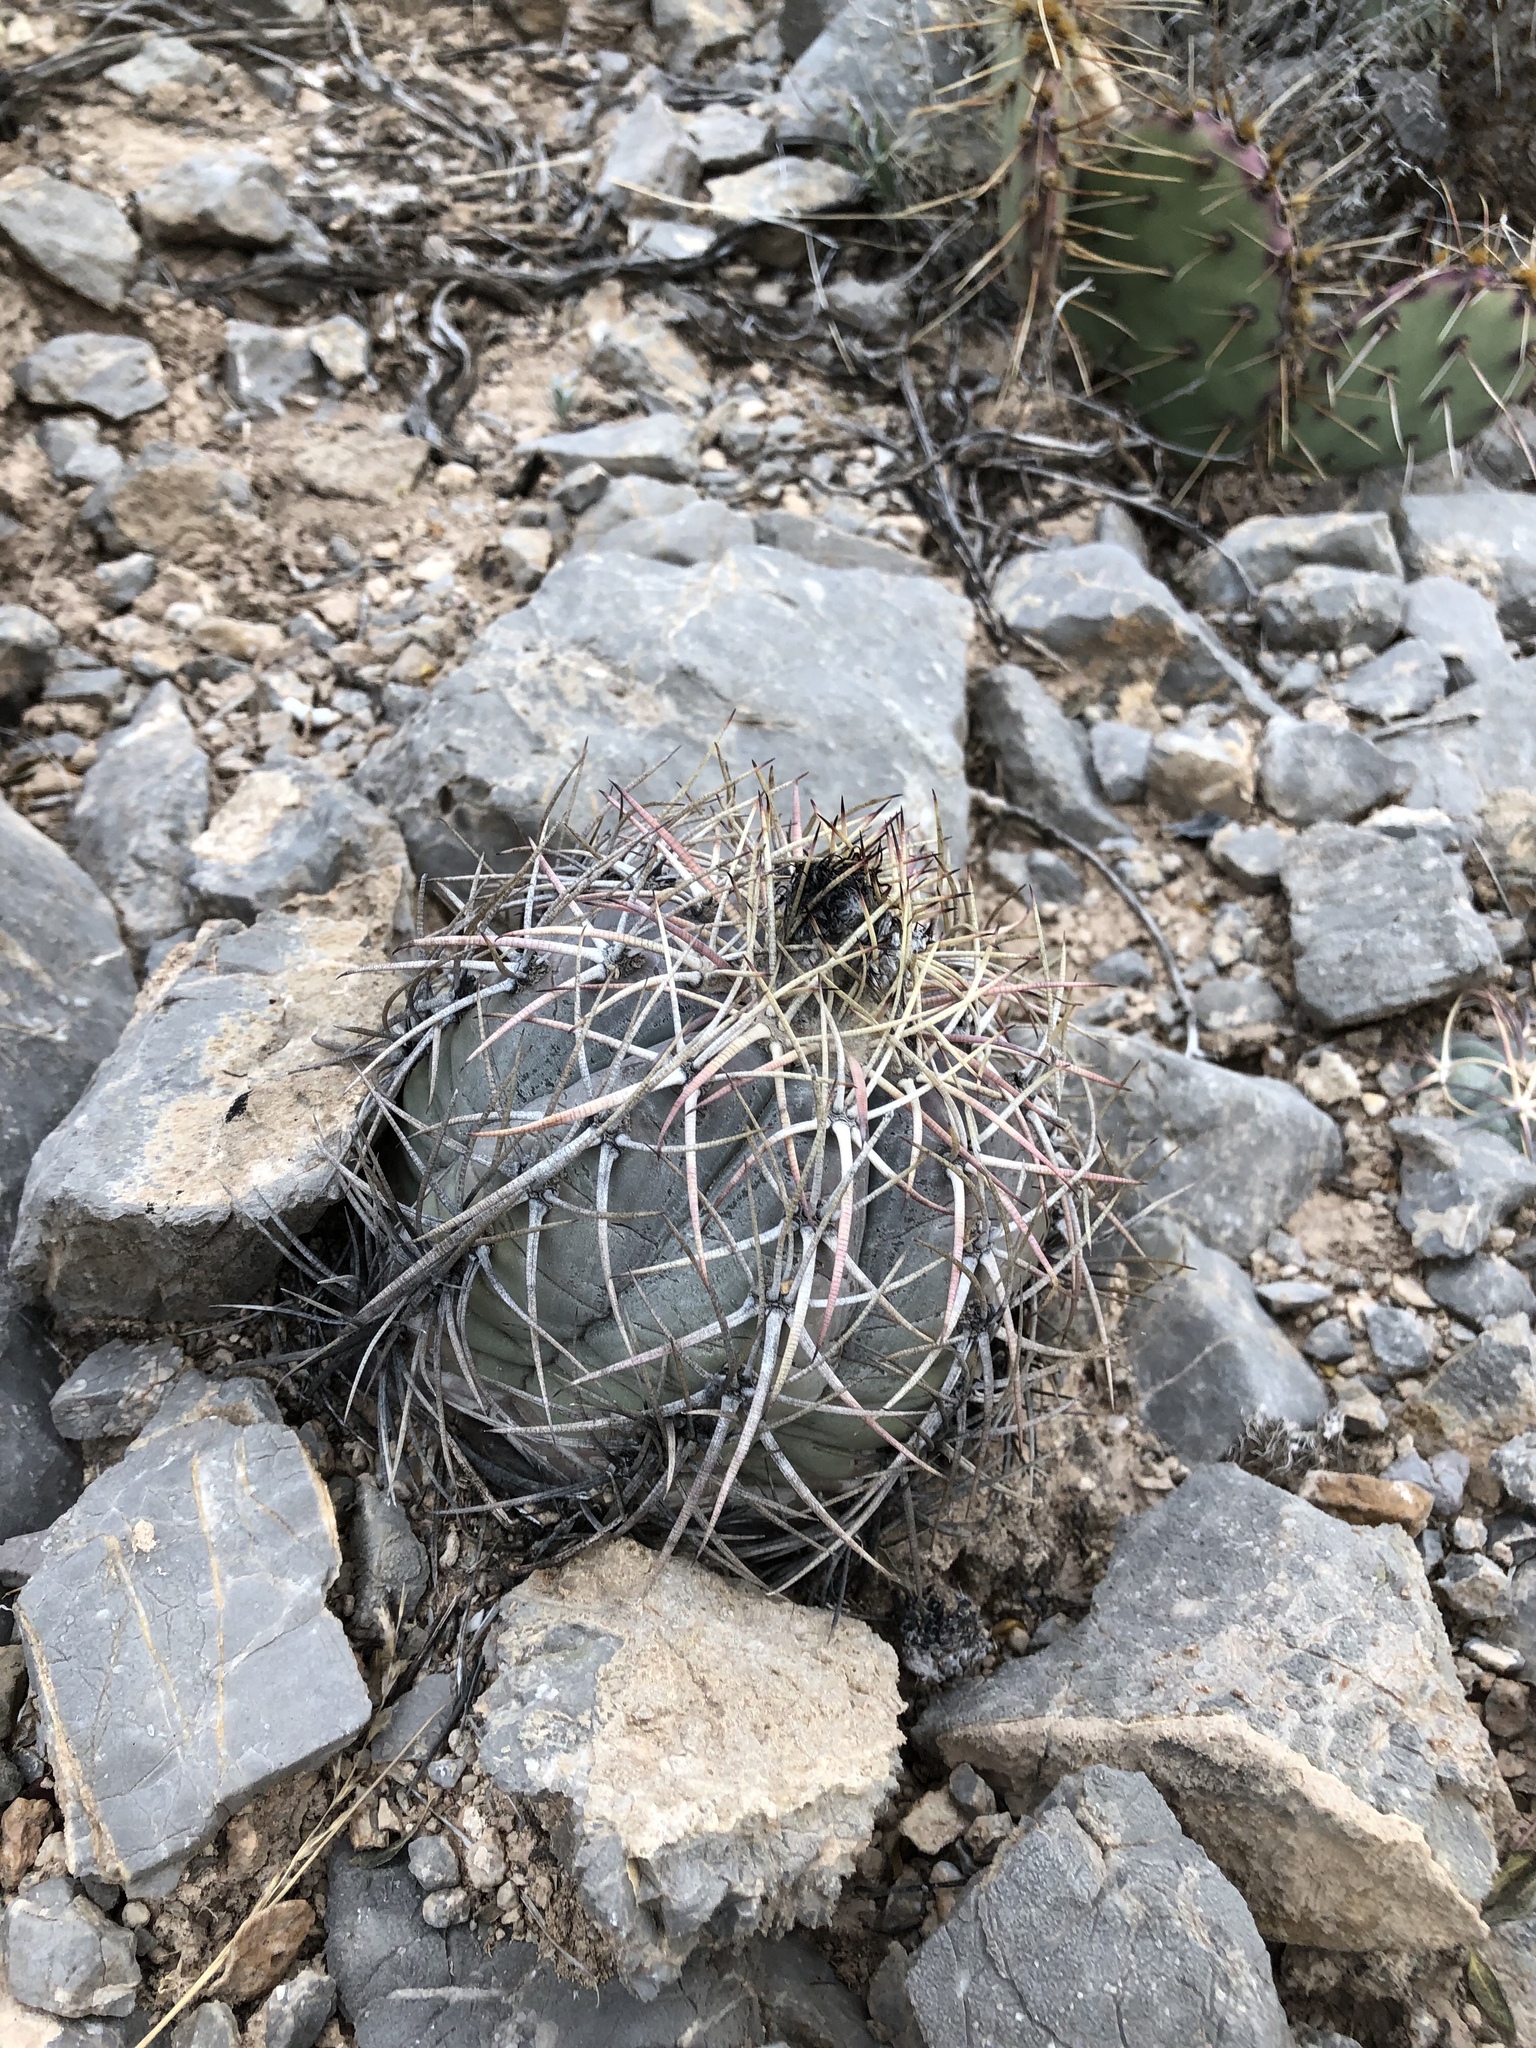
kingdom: Plantae
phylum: Tracheophyta
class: Magnoliopsida
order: Caryophyllales
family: Cactaceae
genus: Echinocactus
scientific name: Echinocactus horizonthalonius
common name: Devilshead
